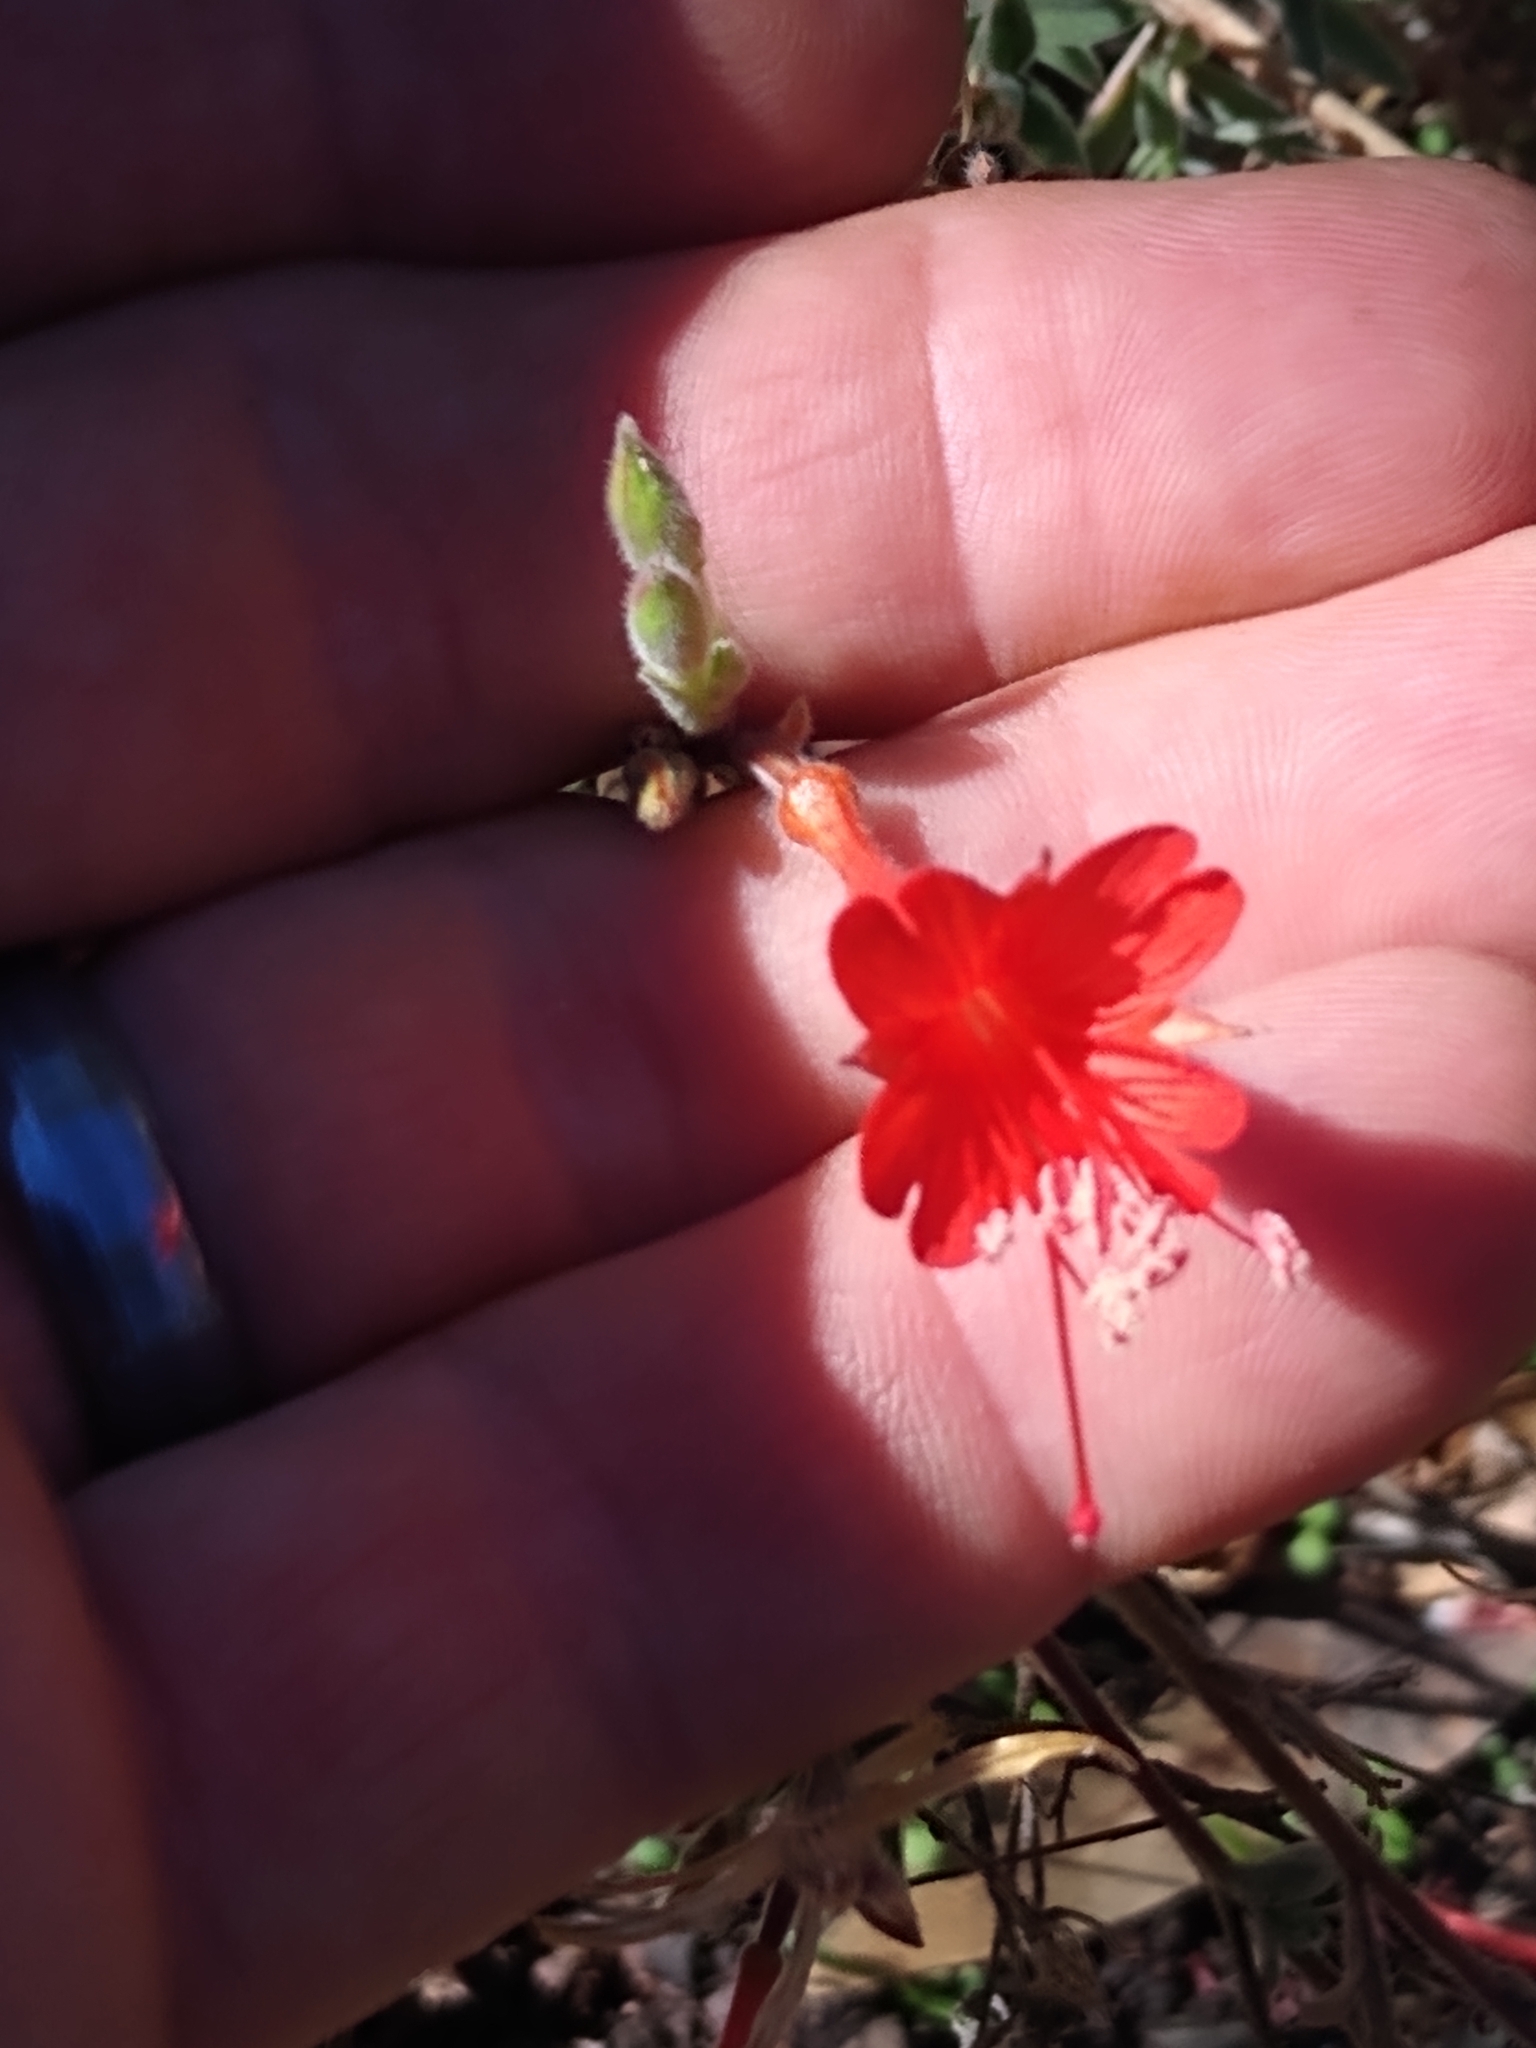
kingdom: Plantae
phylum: Tracheophyta
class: Magnoliopsida
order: Myrtales
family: Onagraceae
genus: Epilobium
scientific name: Epilobium canum
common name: California-fuchsia
